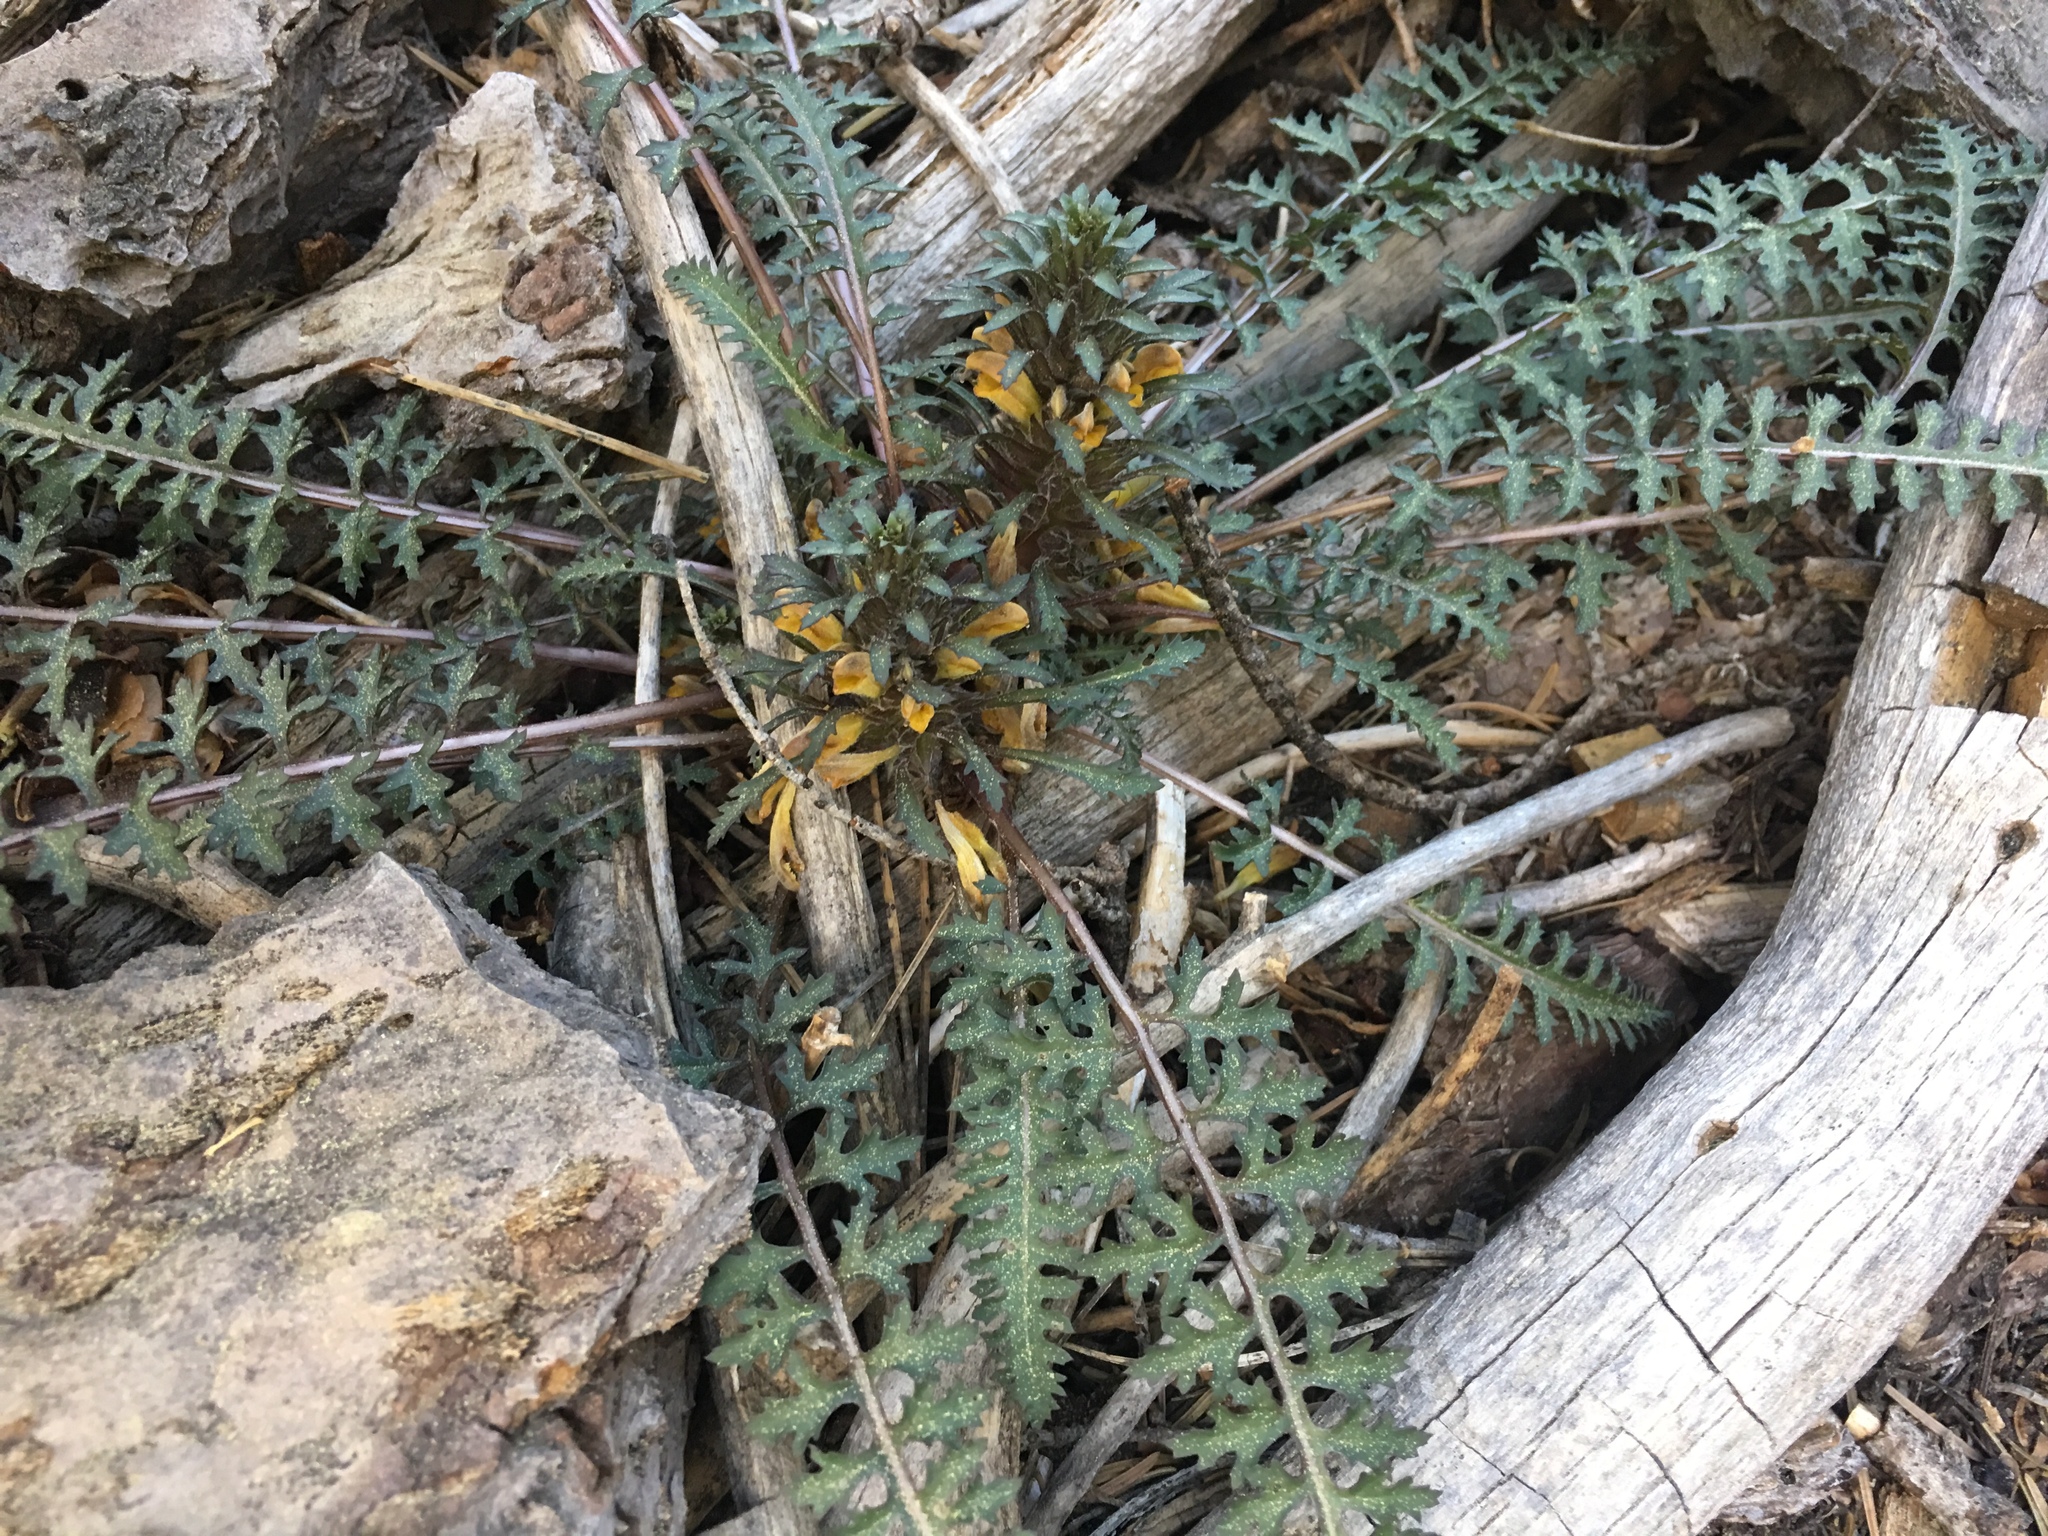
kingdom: Plantae
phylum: Tracheophyta
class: Magnoliopsida
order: Lamiales
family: Orobanchaceae
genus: Pedicularis
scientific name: Pedicularis semibarbata
